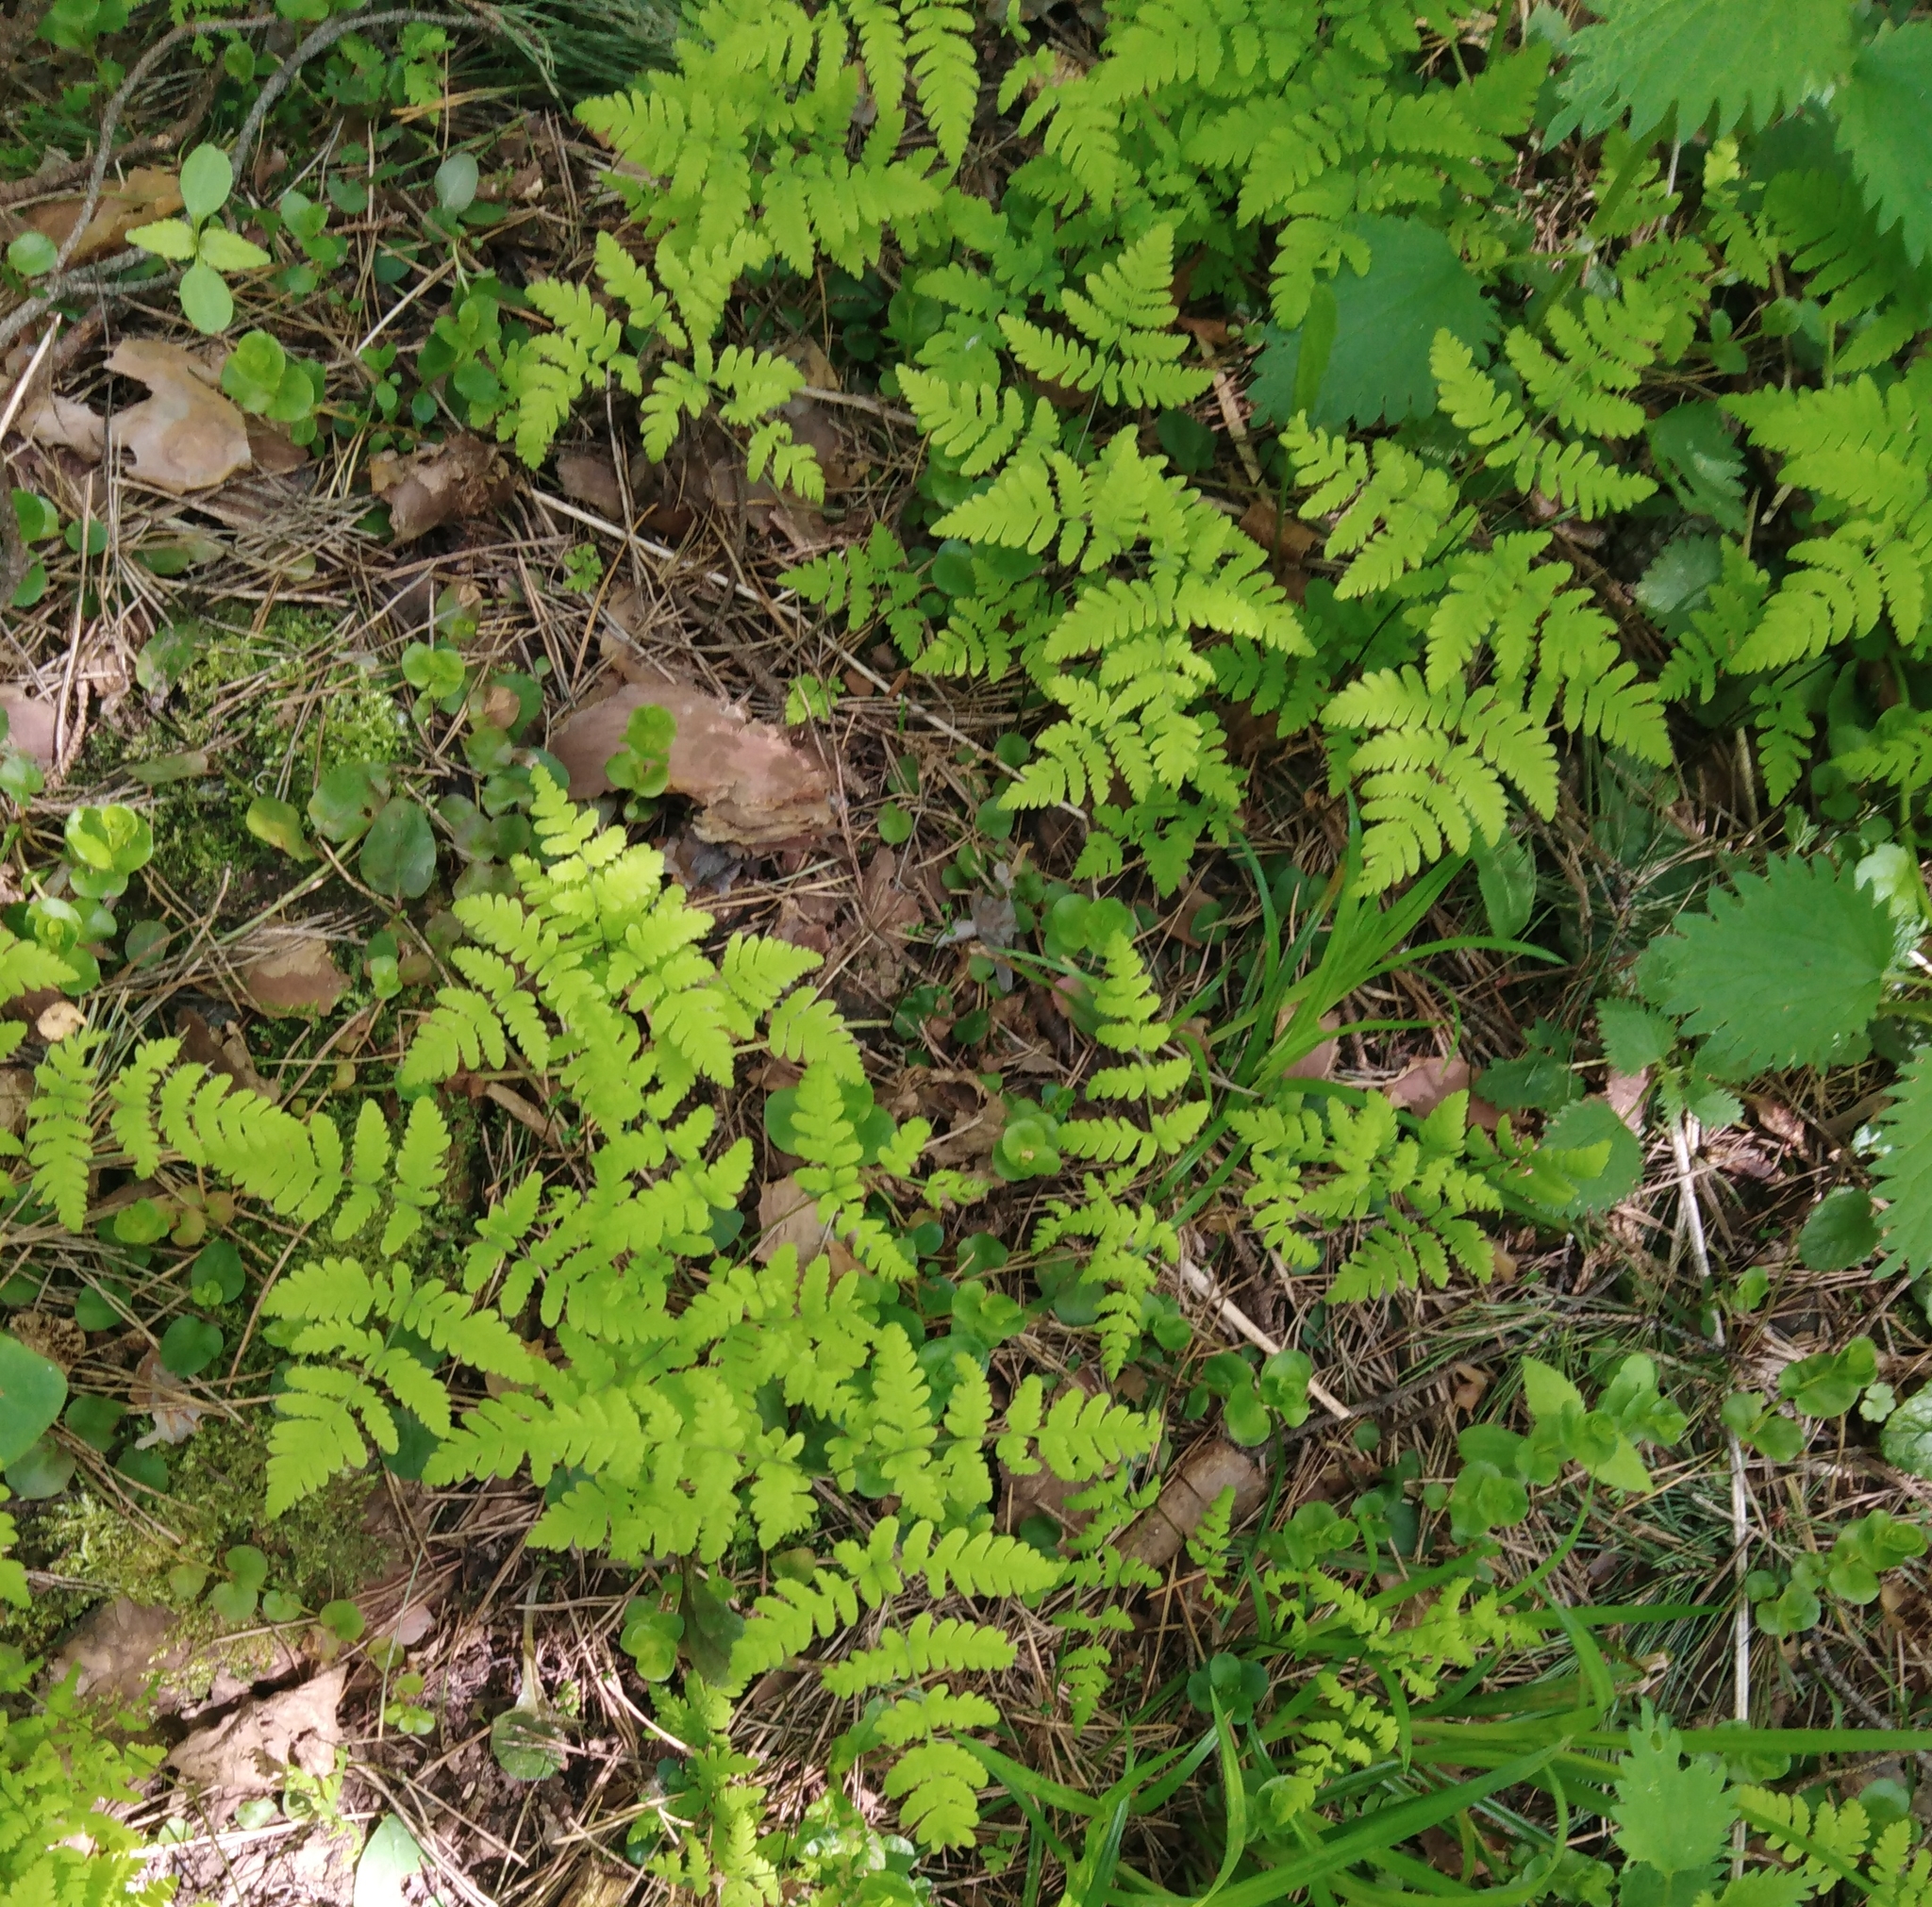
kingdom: Plantae
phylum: Tracheophyta
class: Polypodiopsida
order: Polypodiales
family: Cystopteridaceae
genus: Gymnocarpium
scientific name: Gymnocarpium dryopteris
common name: Oak fern
